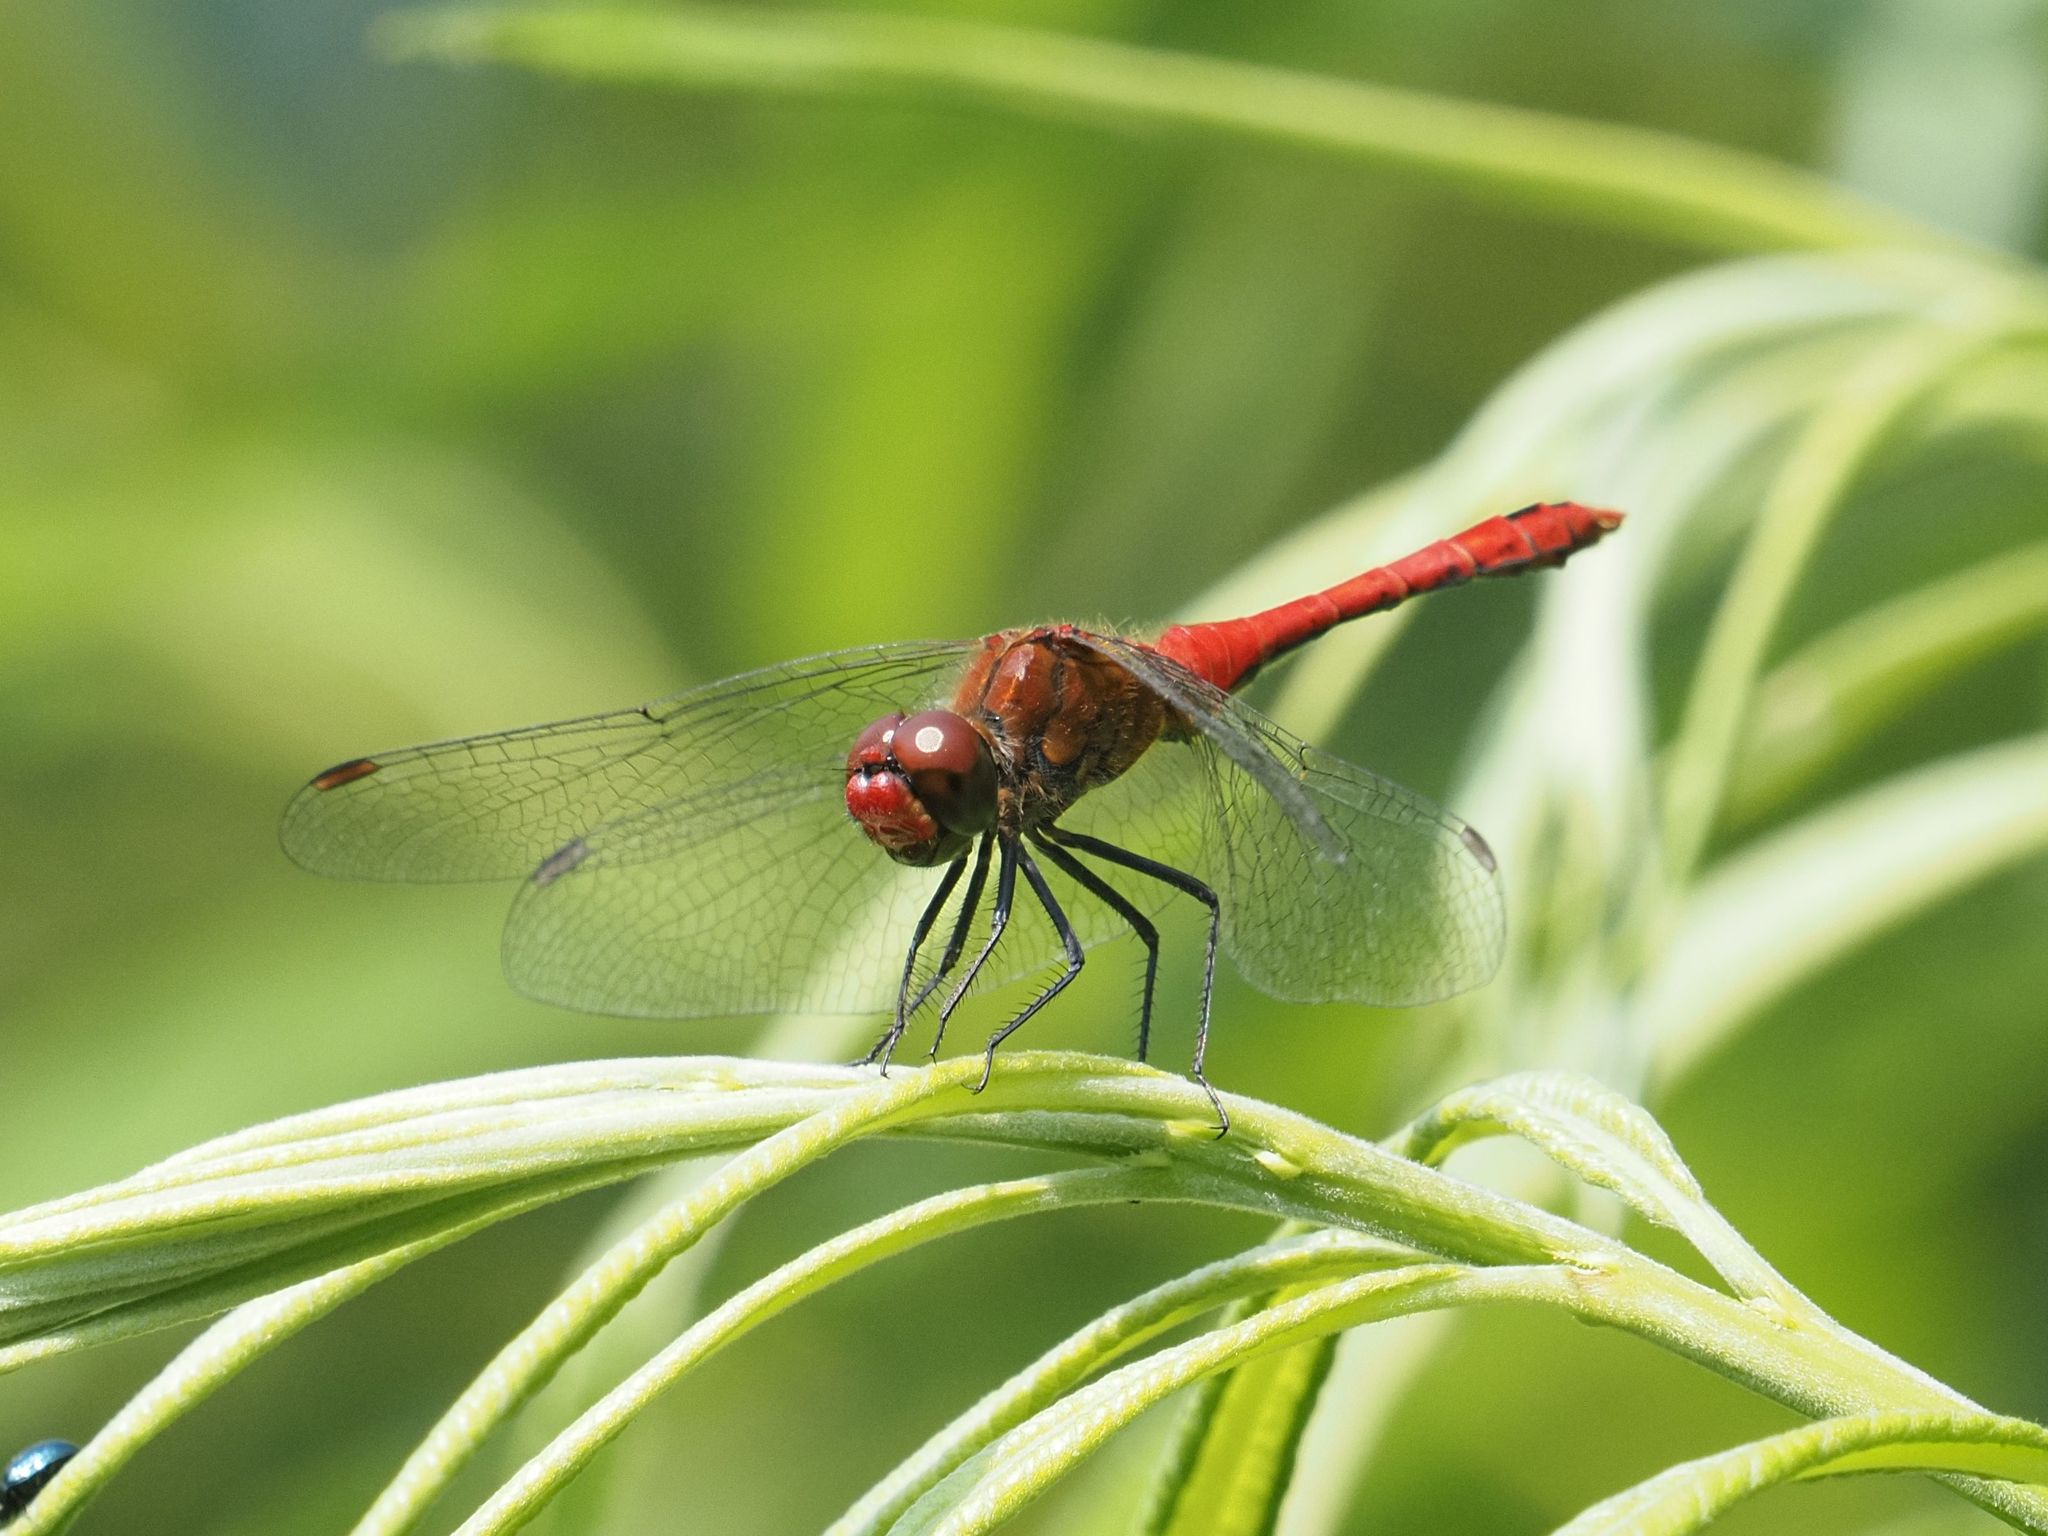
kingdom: Animalia
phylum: Arthropoda
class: Insecta
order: Odonata
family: Libellulidae
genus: Sympetrum
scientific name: Sympetrum sanguineum
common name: Ruddy darter
